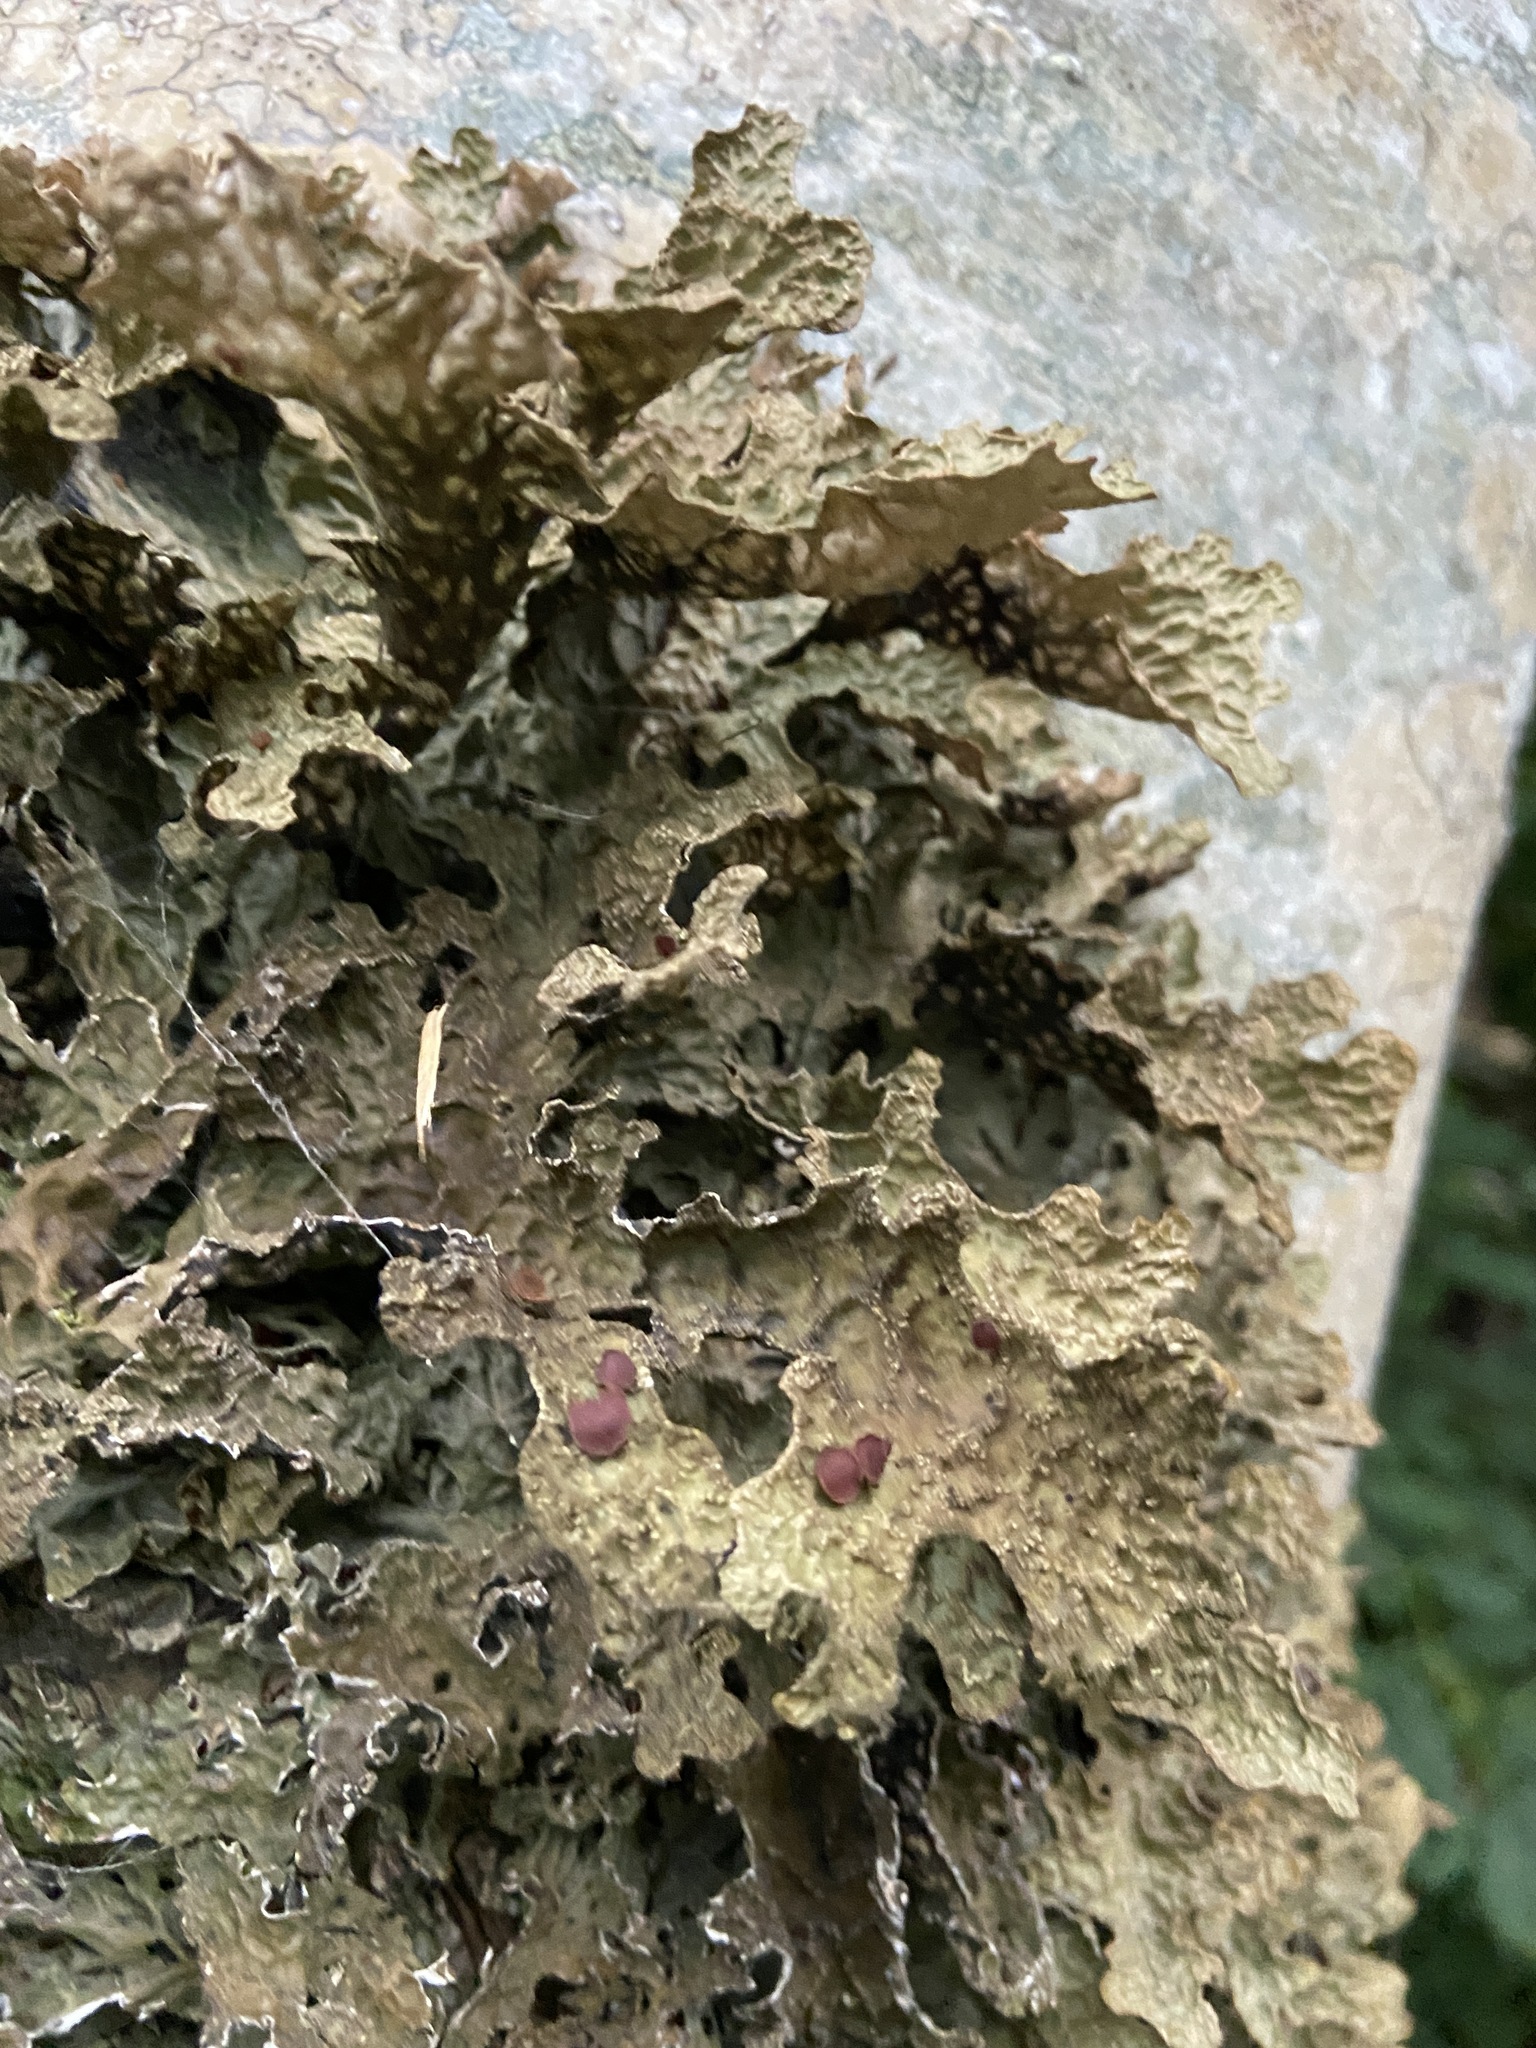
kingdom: Fungi
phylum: Ascomycota
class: Lecanoromycetes
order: Peltigerales
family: Lobariaceae
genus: Lobaria
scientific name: Lobaria pulmonaria
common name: Lungwort
